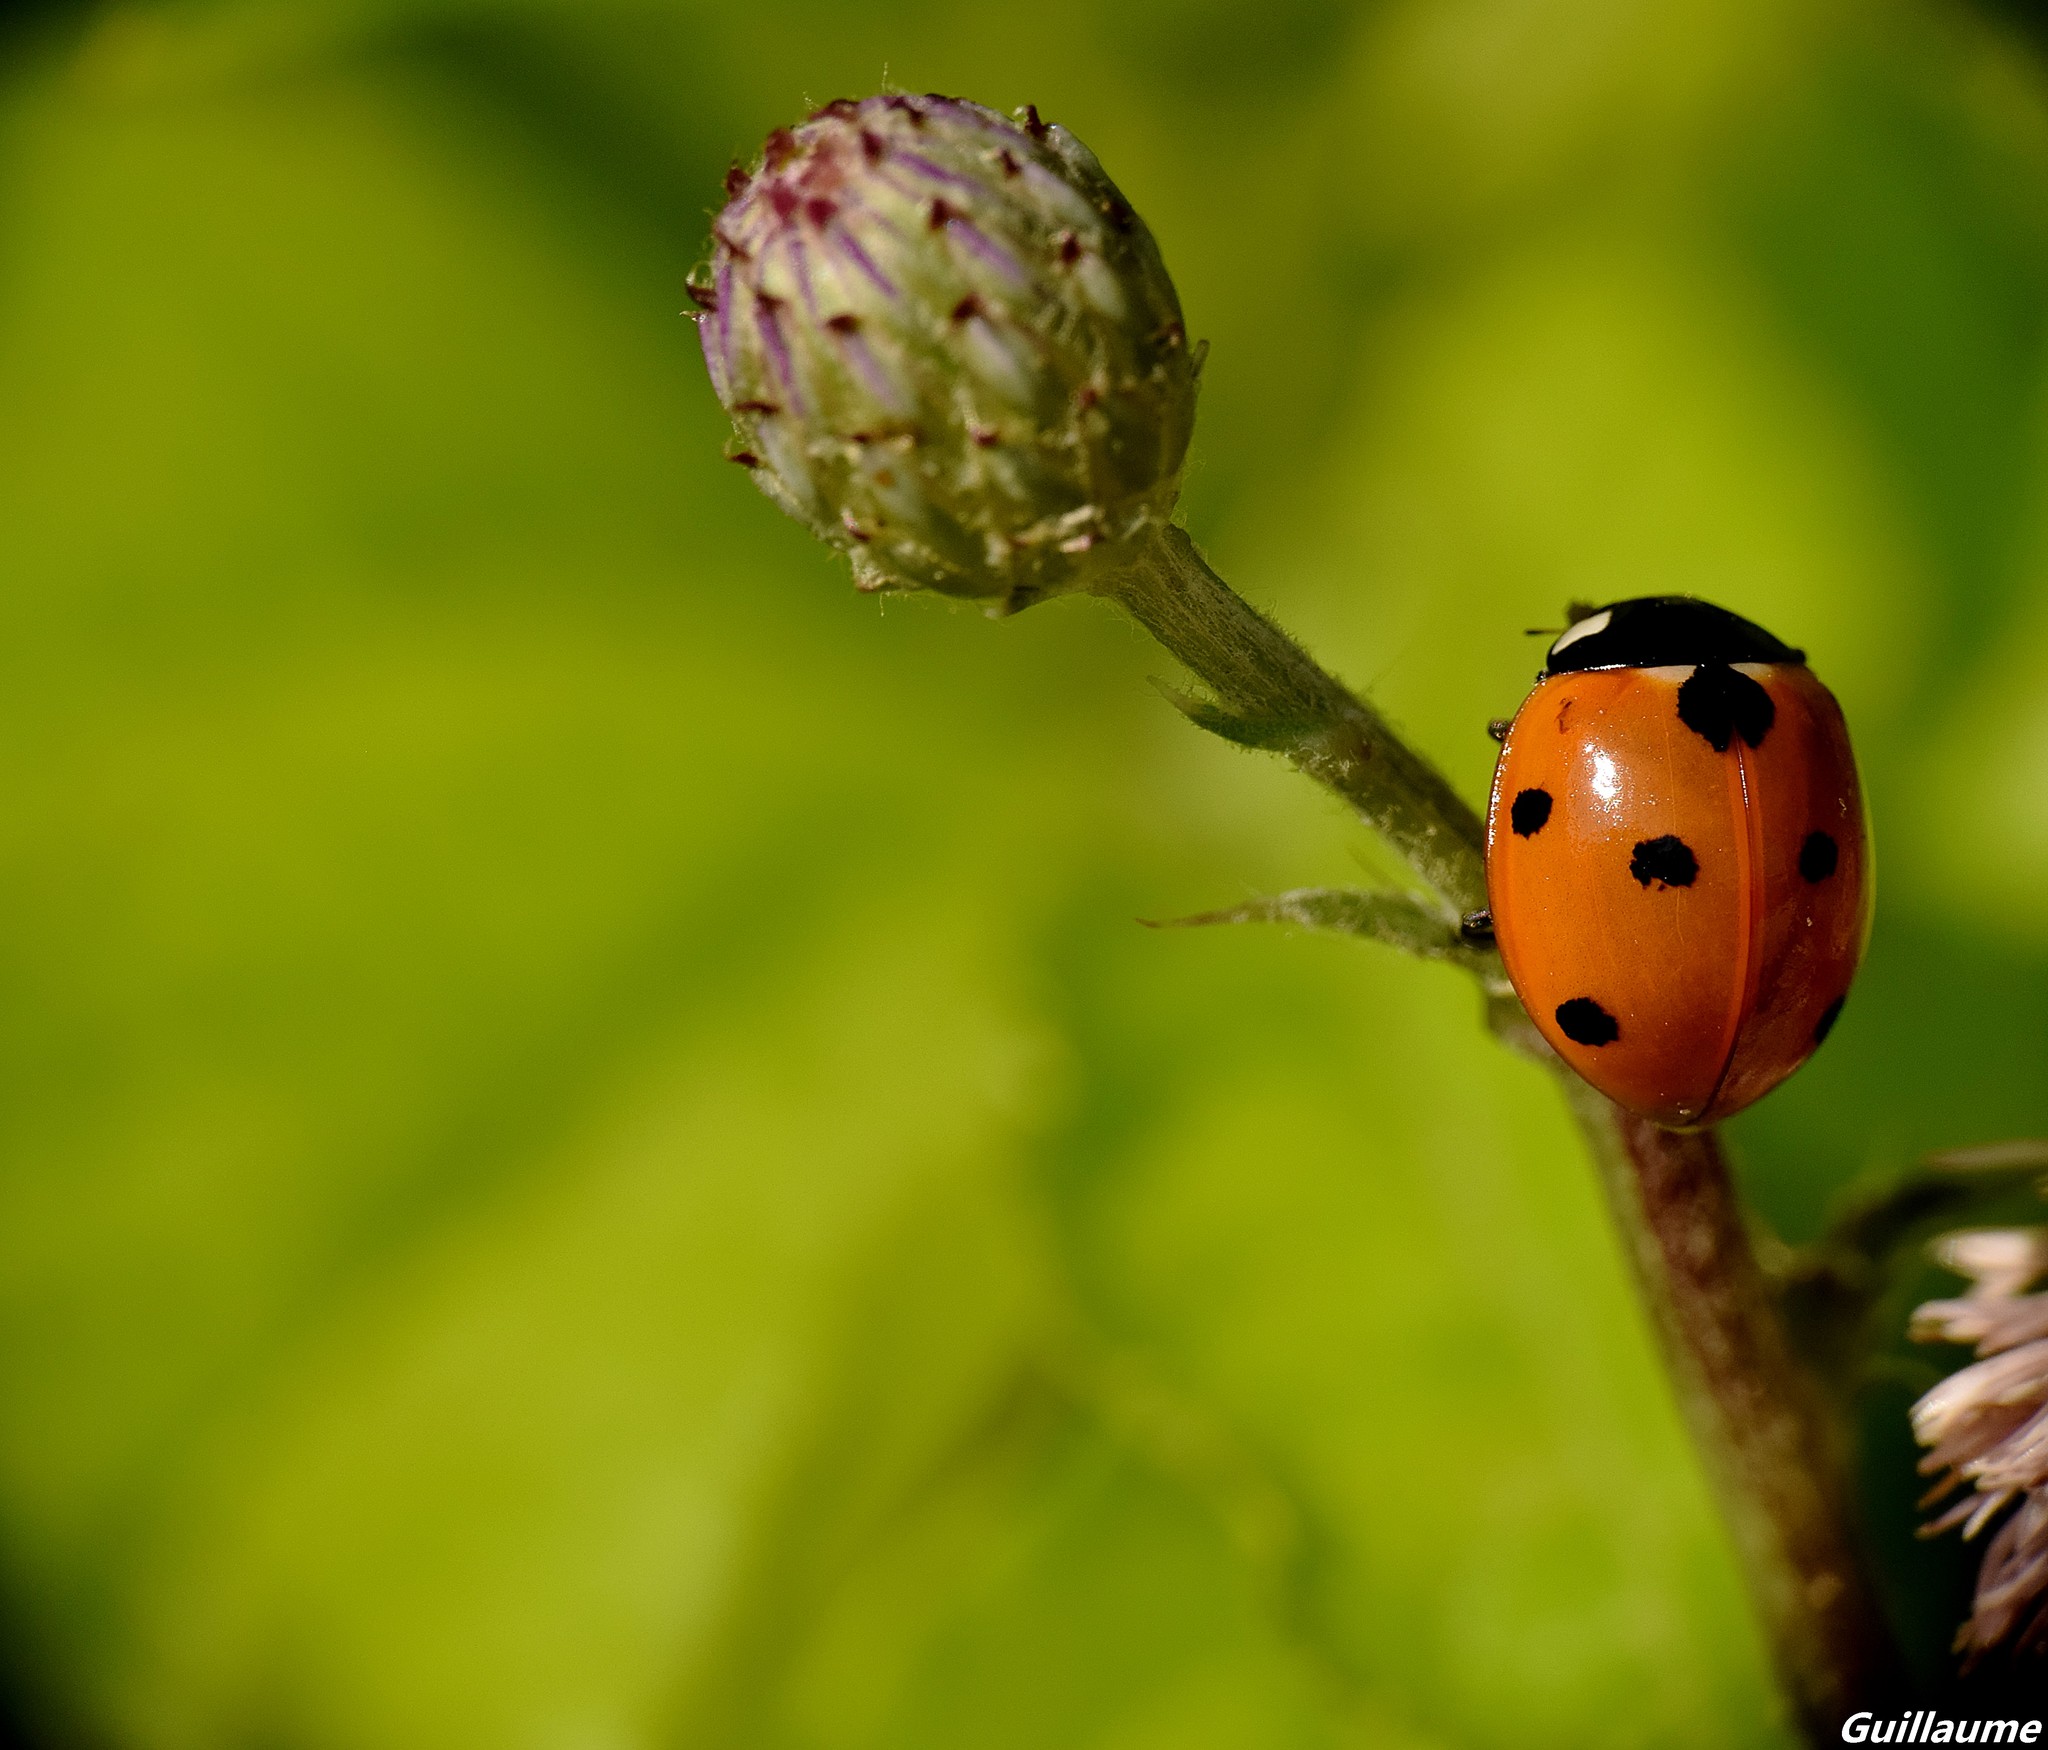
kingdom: Animalia
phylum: Arthropoda
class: Insecta
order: Coleoptera
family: Coccinellidae
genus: Coccinella
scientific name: Coccinella septempunctata
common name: Sevenspotted lady beetle
